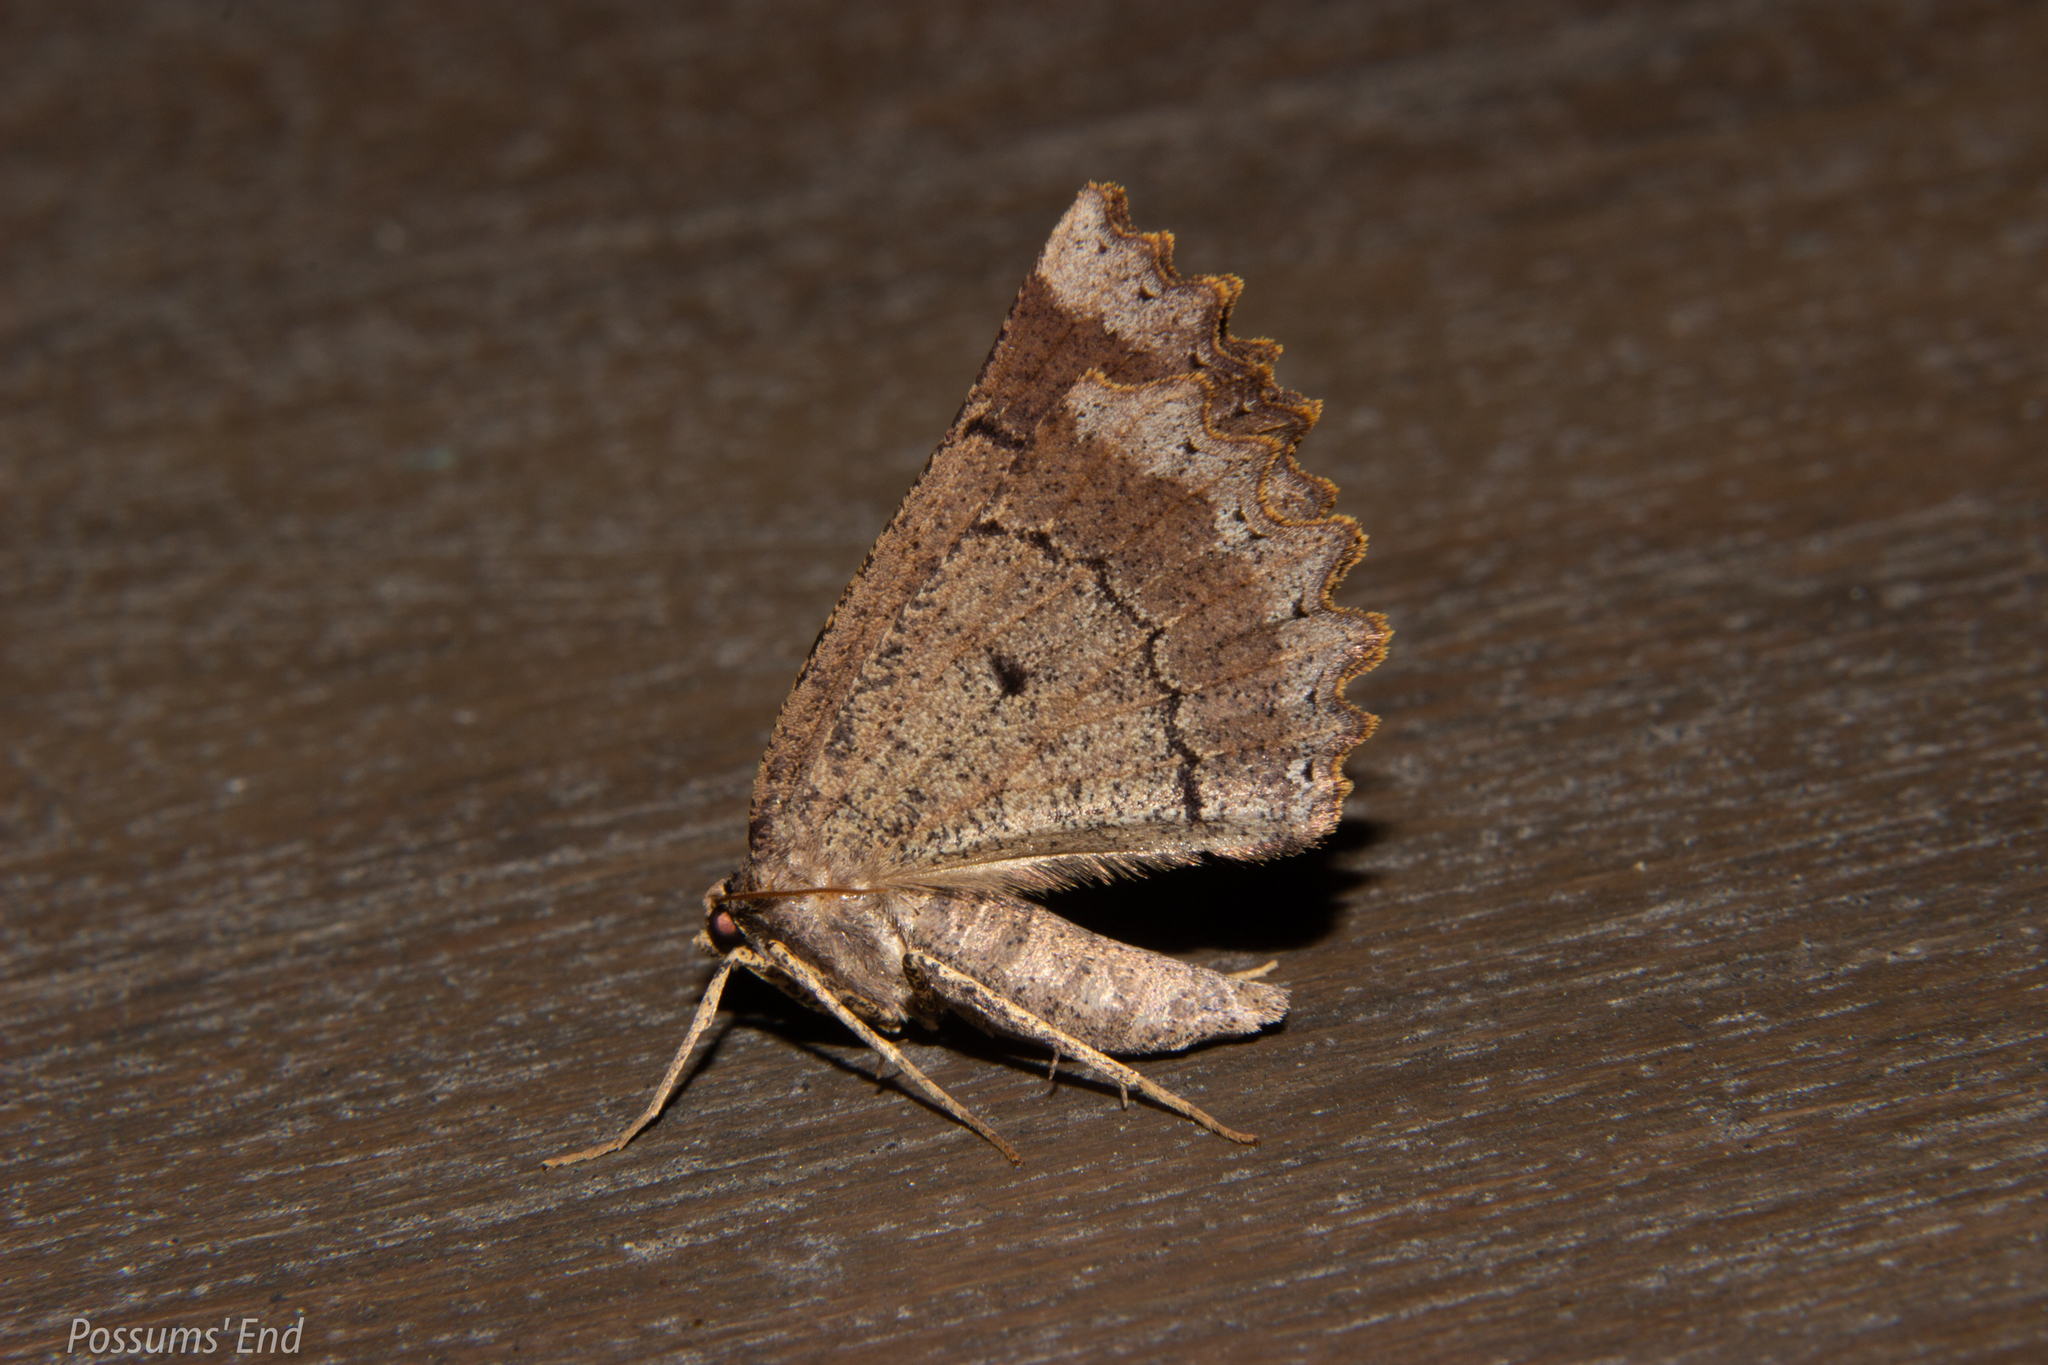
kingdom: Animalia
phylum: Arthropoda
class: Insecta
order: Lepidoptera
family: Geometridae
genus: Gellonia
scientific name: Gellonia pannularia
